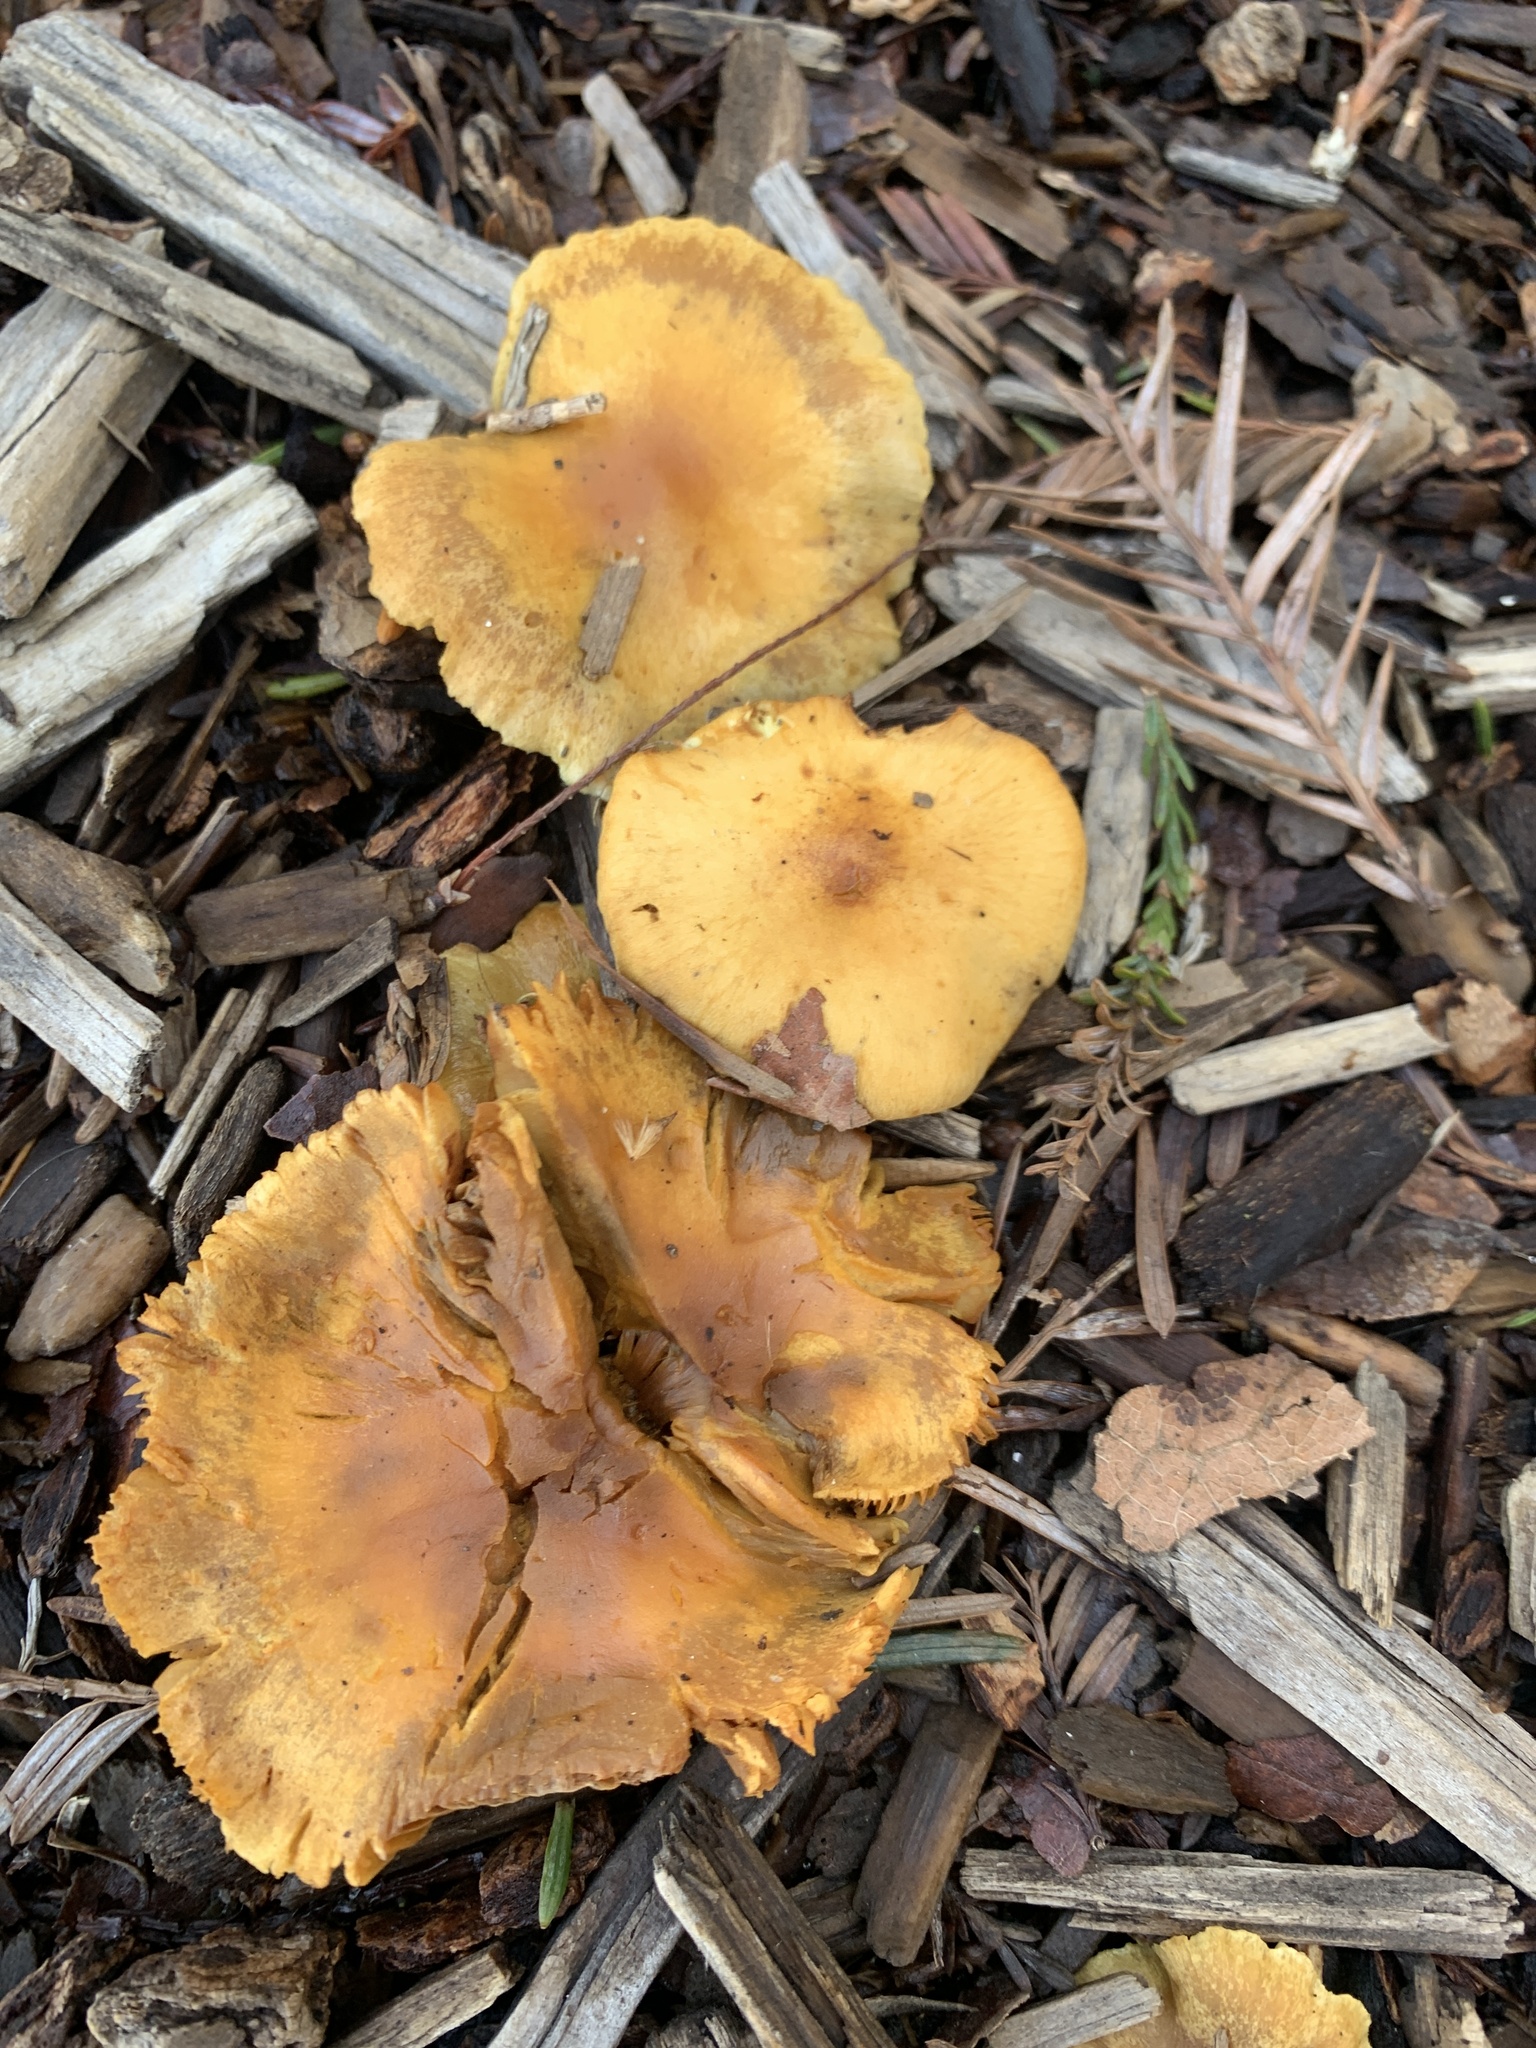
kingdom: Fungi
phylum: Basidiomycota
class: Agaricomycetes
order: Agaricales
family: Strophariaceae
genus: Pholiota
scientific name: Pholiota spumosa
